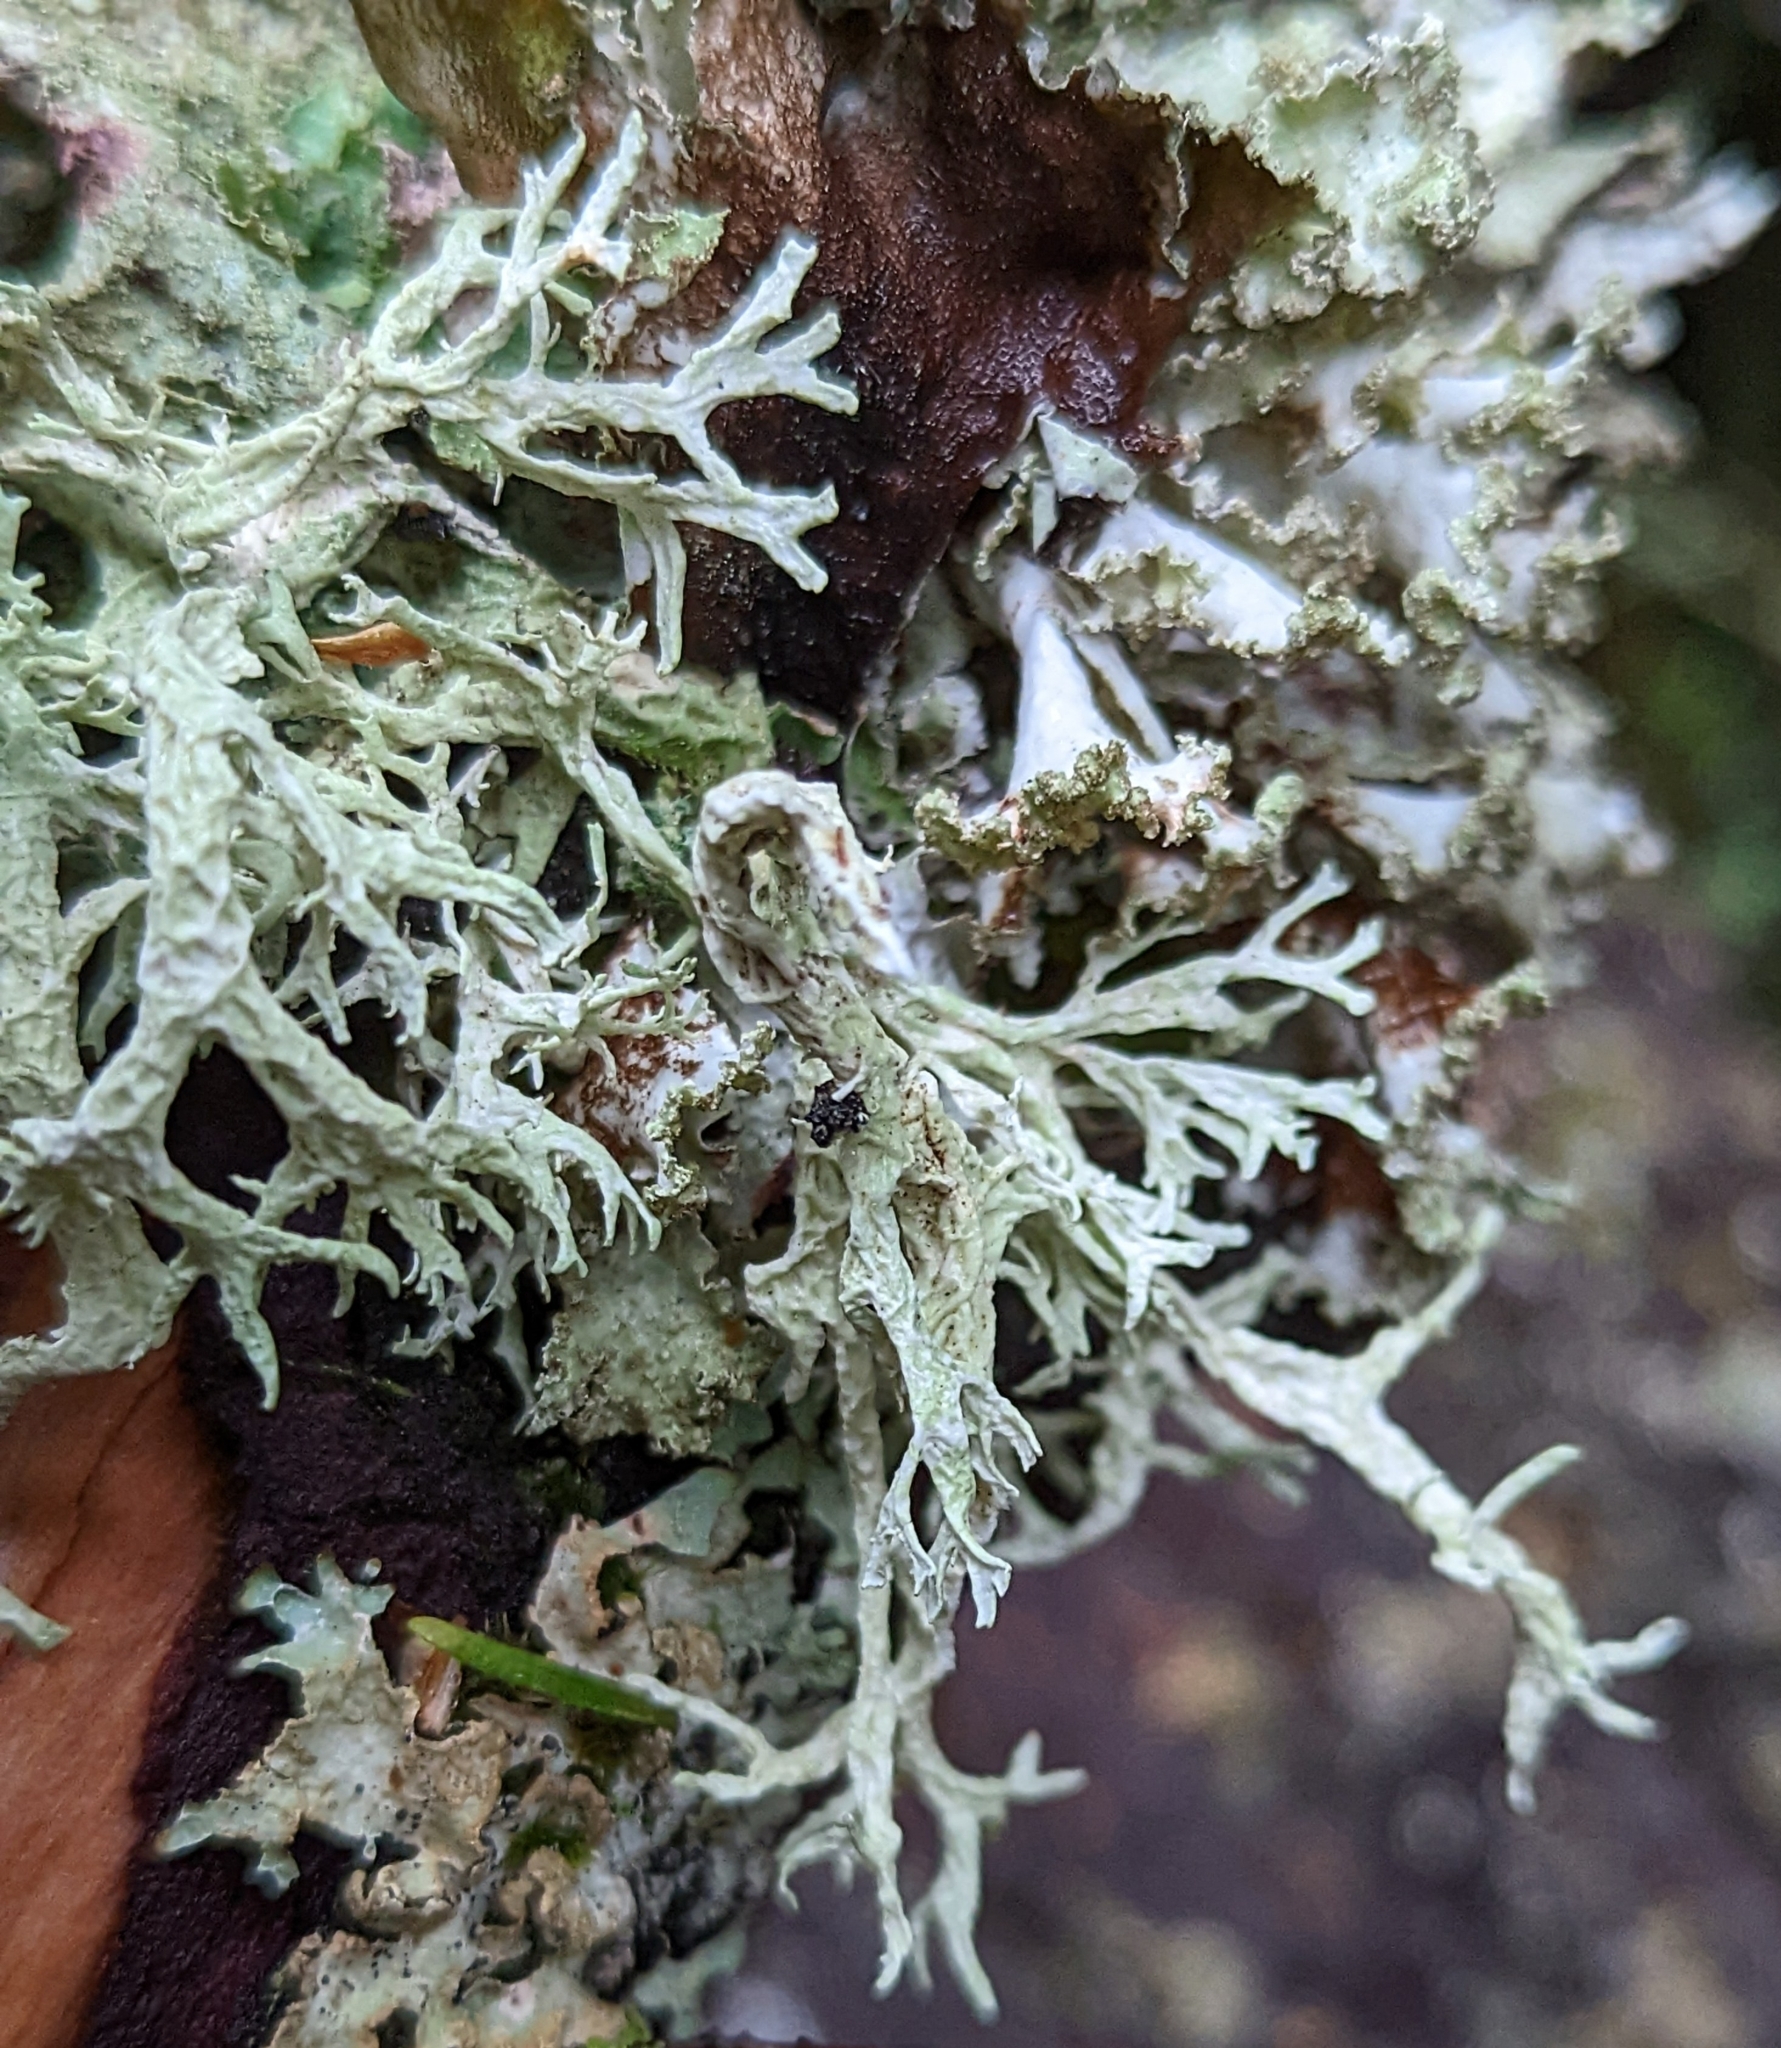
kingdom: Fungi
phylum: Ascomycota
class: Lecanoromycetes
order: Lecanorales
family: Parmeliaceae
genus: Evernia
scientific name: Evernia prunastri
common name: Oak moss
